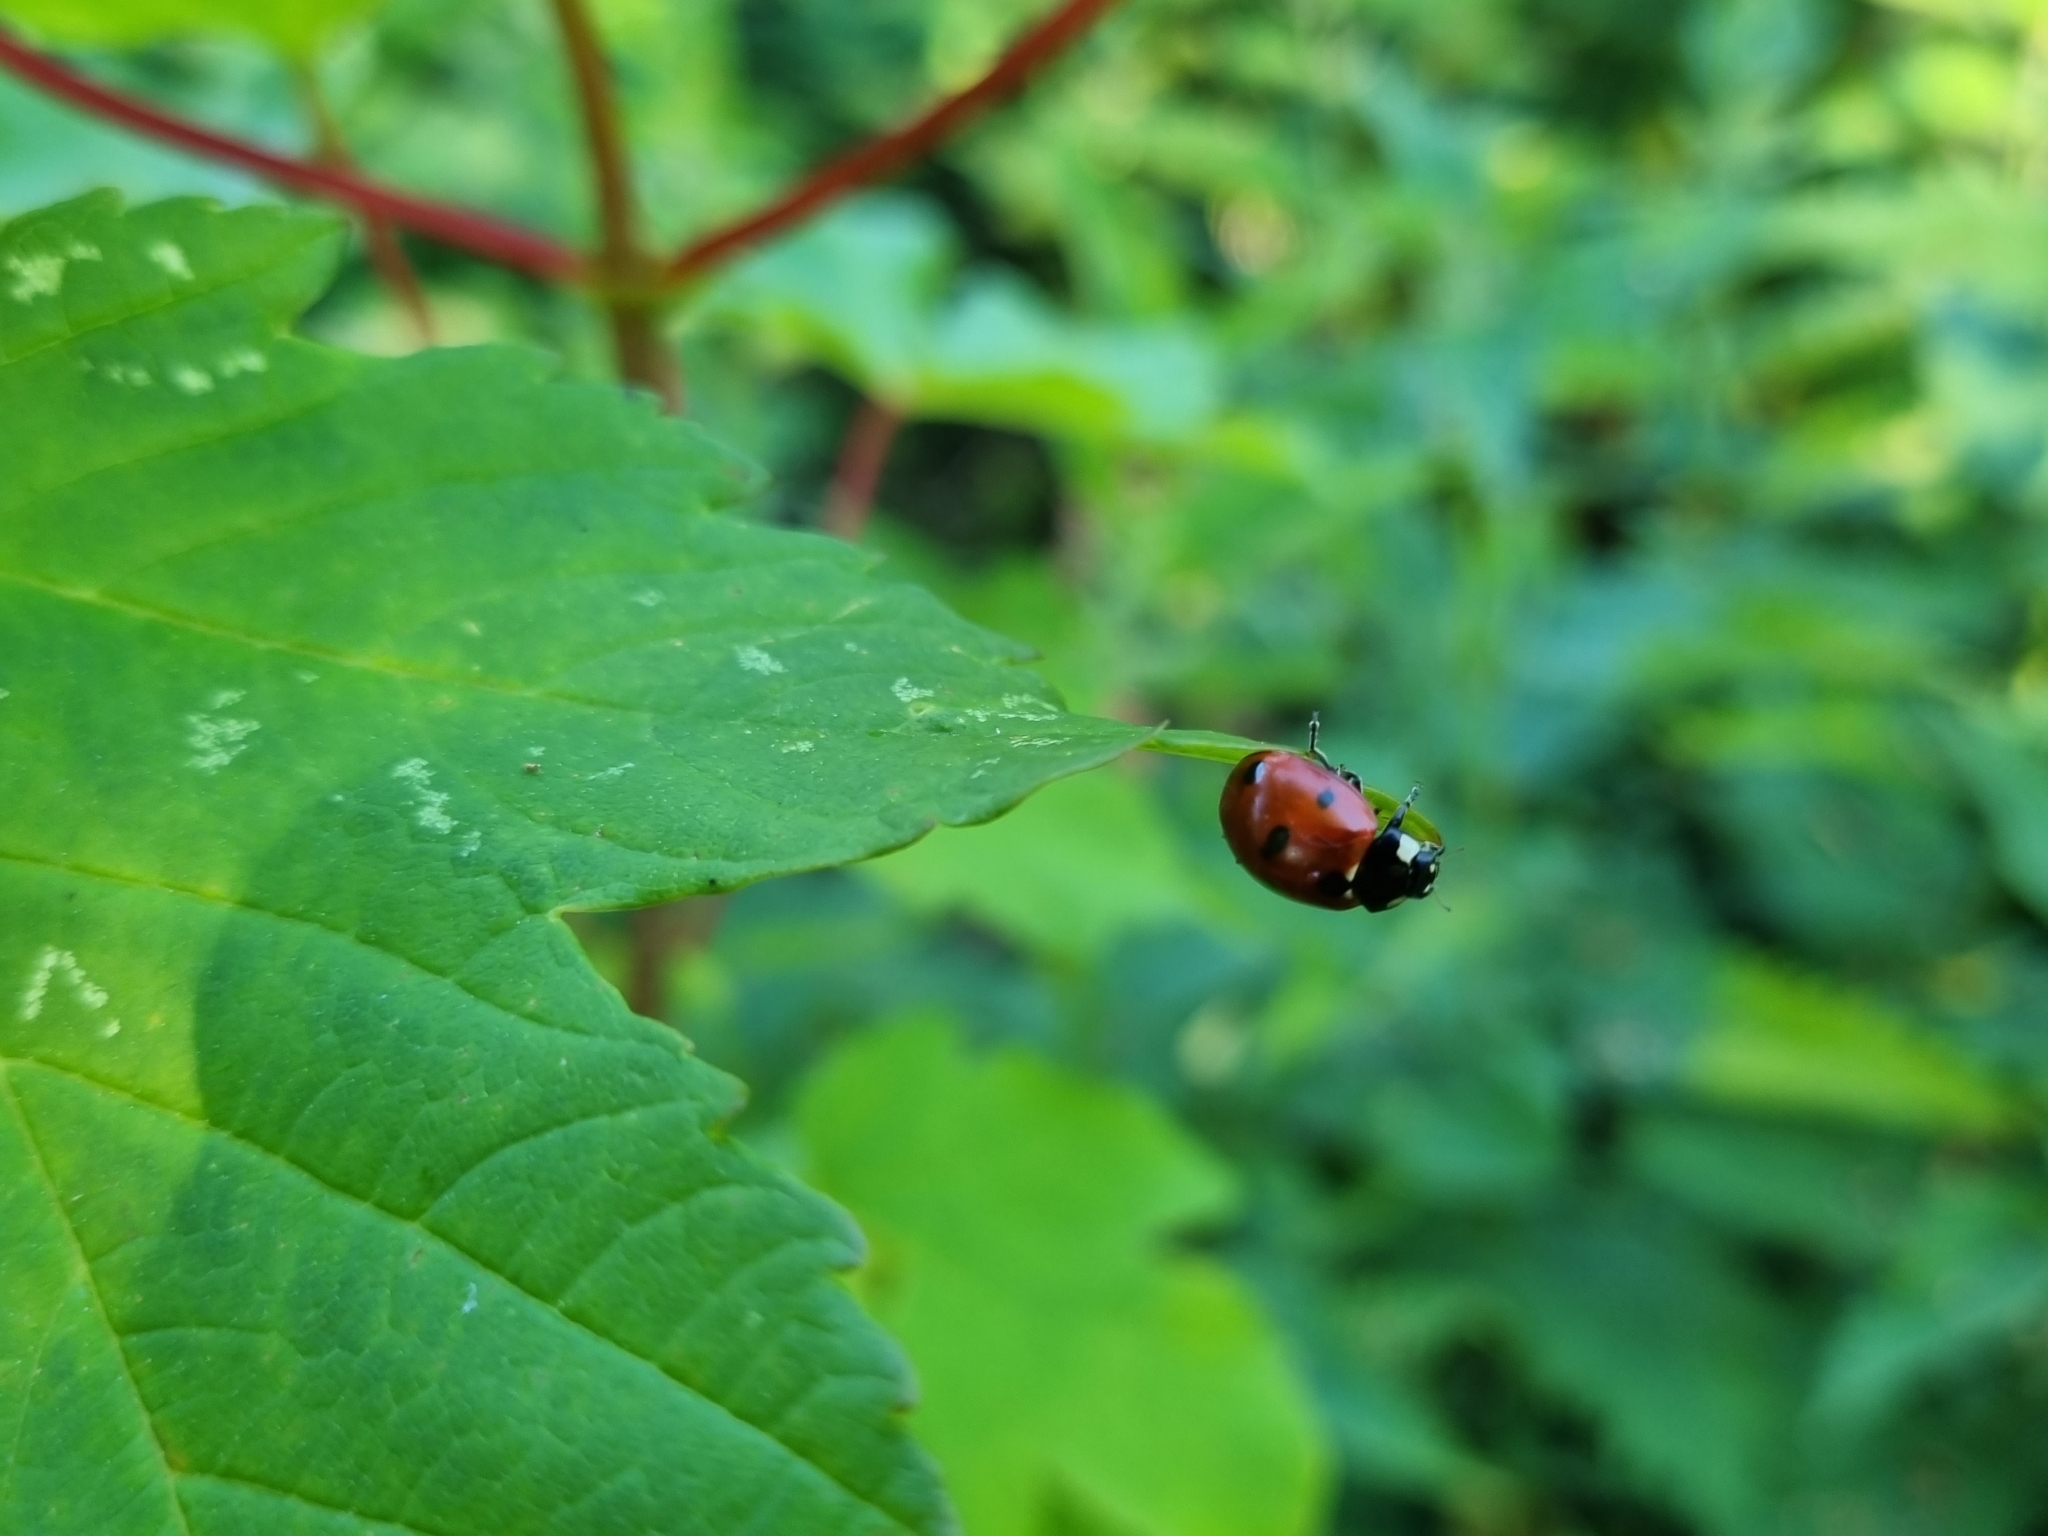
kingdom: Animalia
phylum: Arthropoda
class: Insecta
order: Coleoptera
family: Coccinellidae
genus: Coccinella
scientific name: Coccinella septempunctata
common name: Sevenspotted lady beetle
